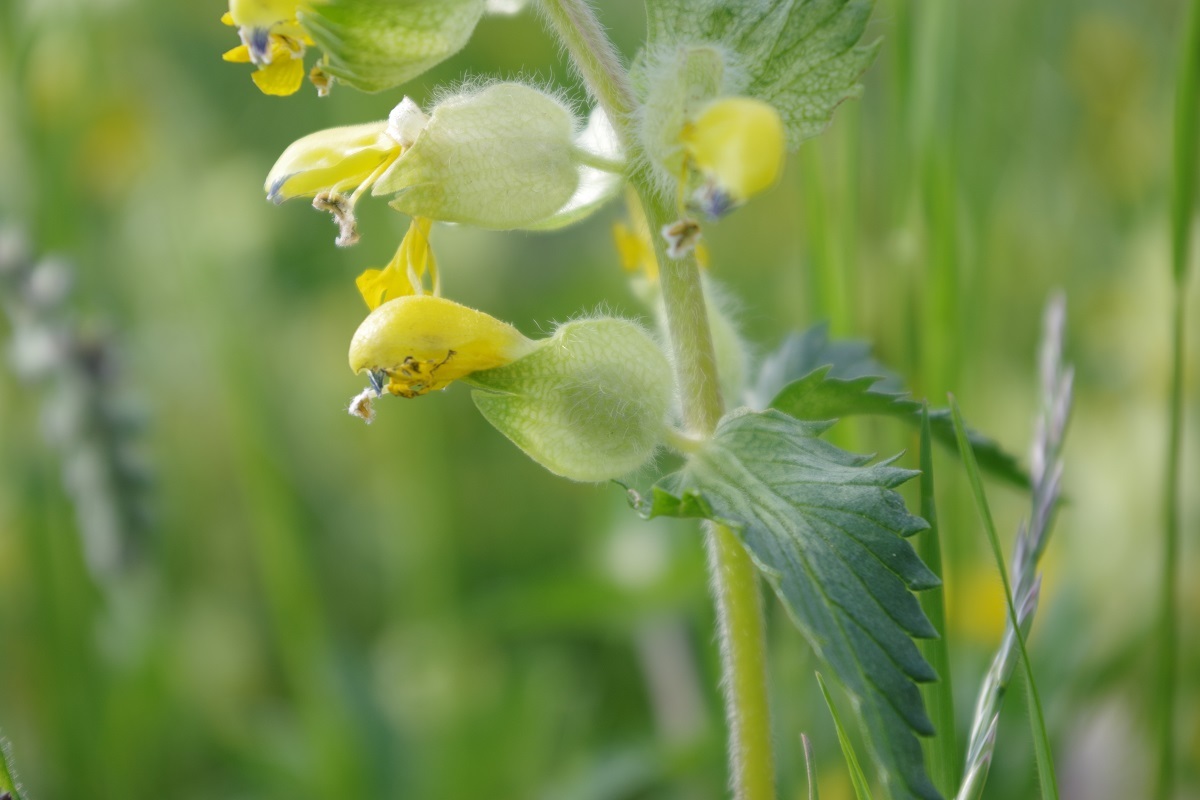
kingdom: Plantae
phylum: Tracheophyta
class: Magnoliopsida
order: Lamiales
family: Orobanchaceae
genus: Rhinanthus
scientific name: Rhinanthus alectorolophus
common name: Greater yellow-rattle
